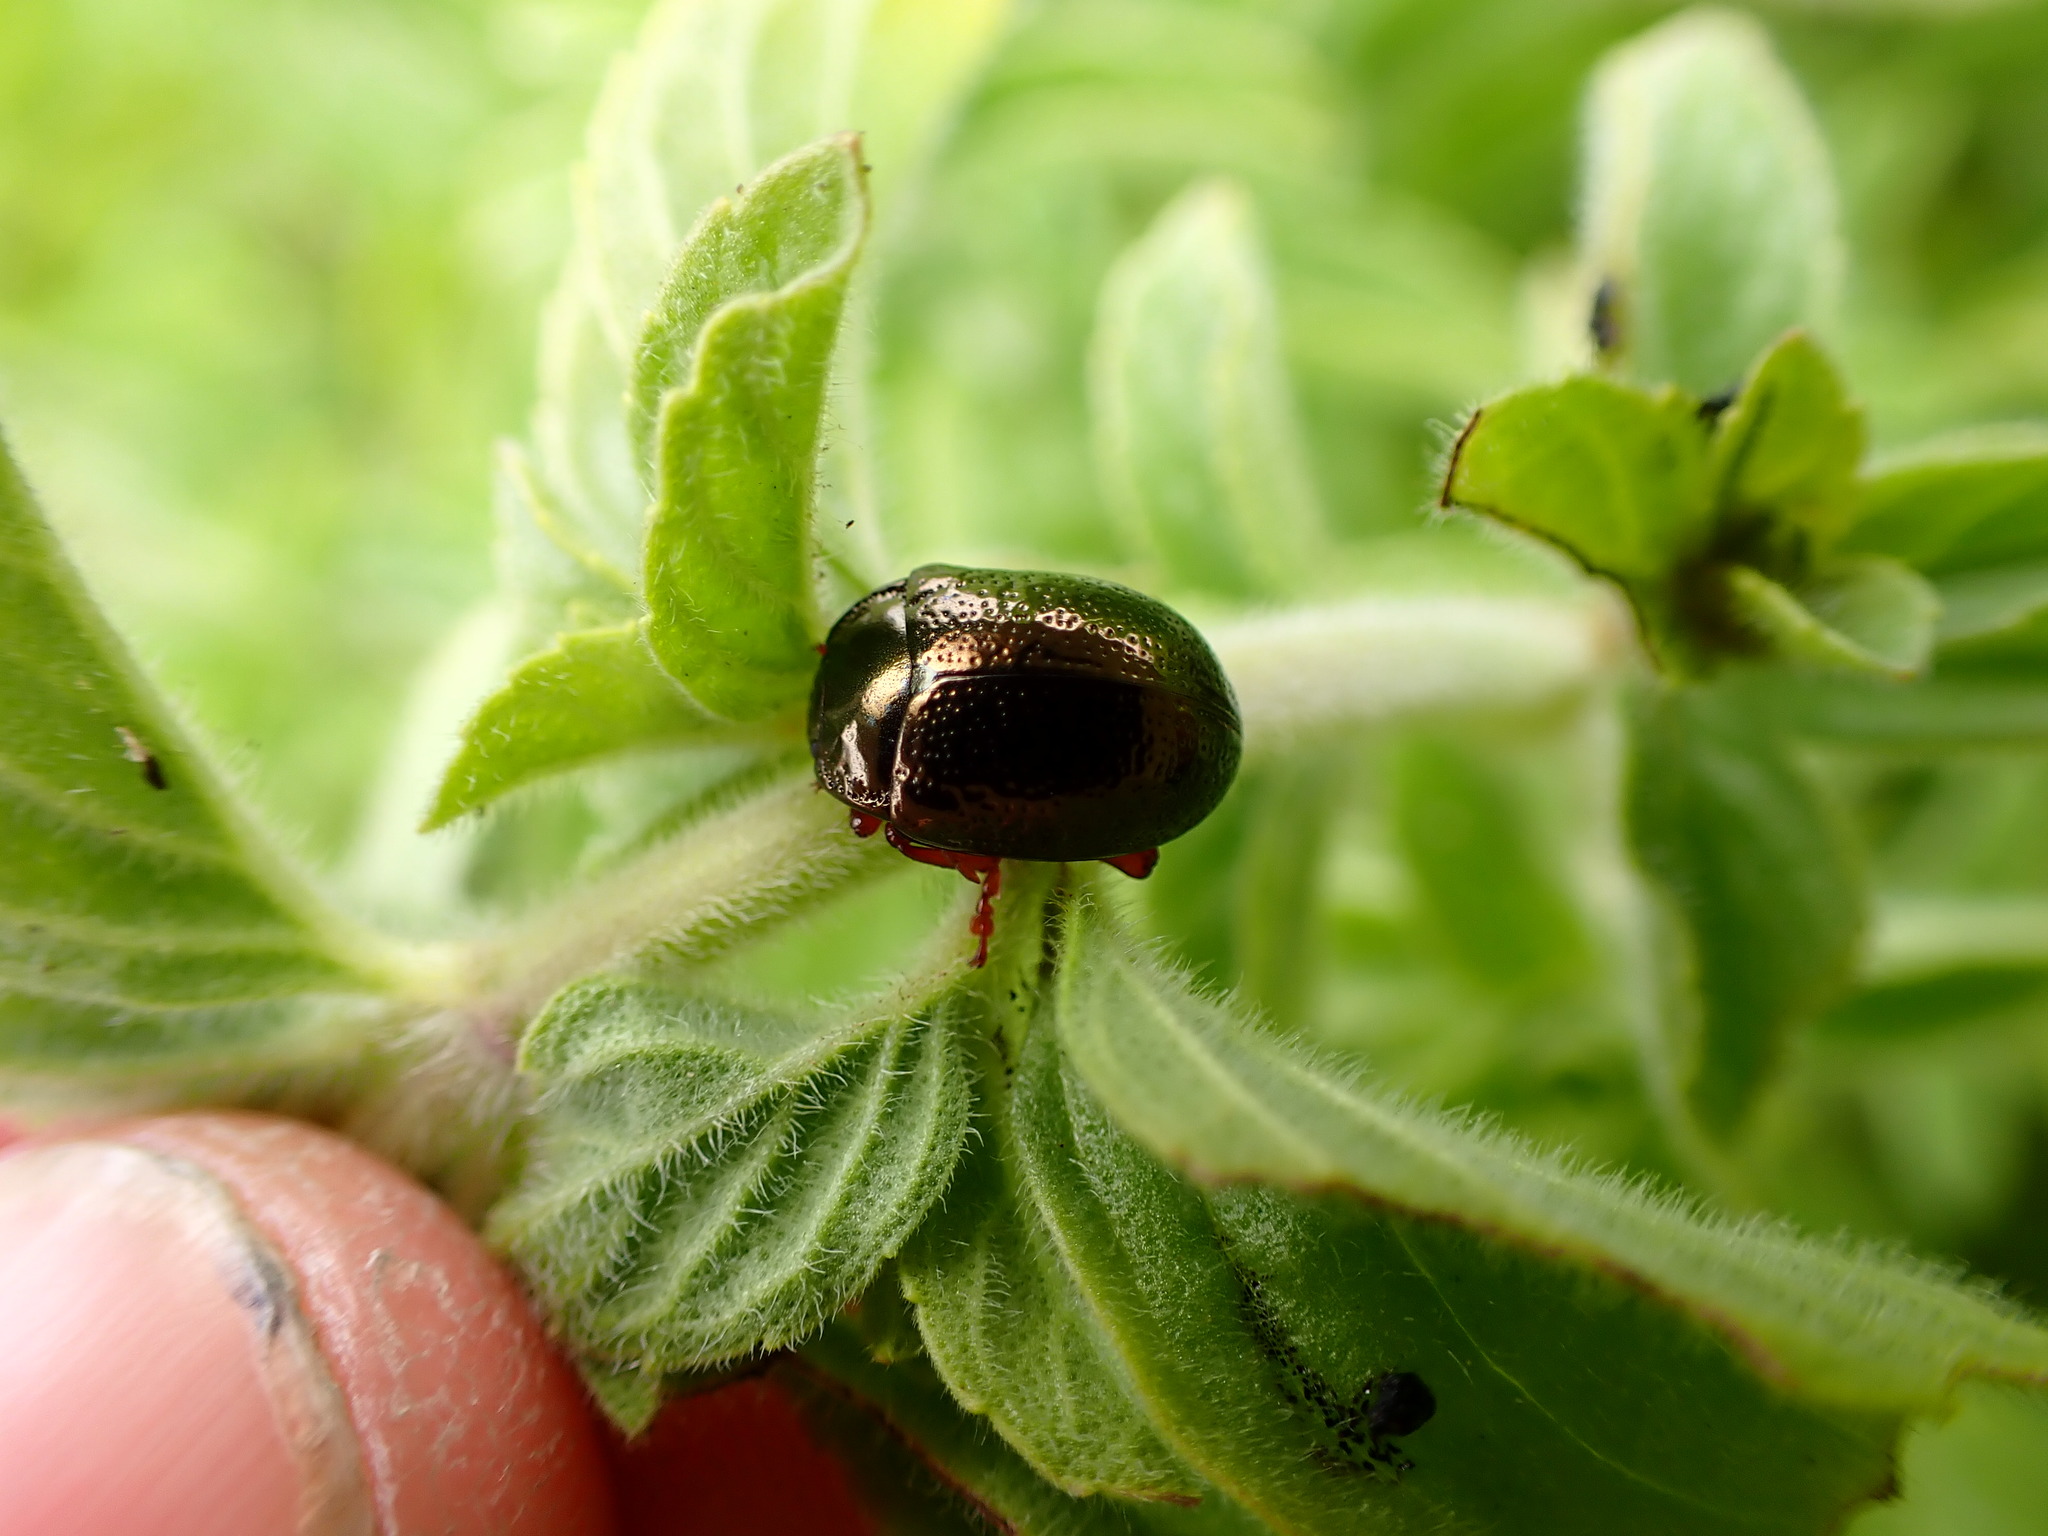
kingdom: Animalia
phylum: Arthropoda
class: Insecta
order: Coleoptera
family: Chrysomelidae
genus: Chrysolina
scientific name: Chrysolina bankii
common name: Leaf beetle
